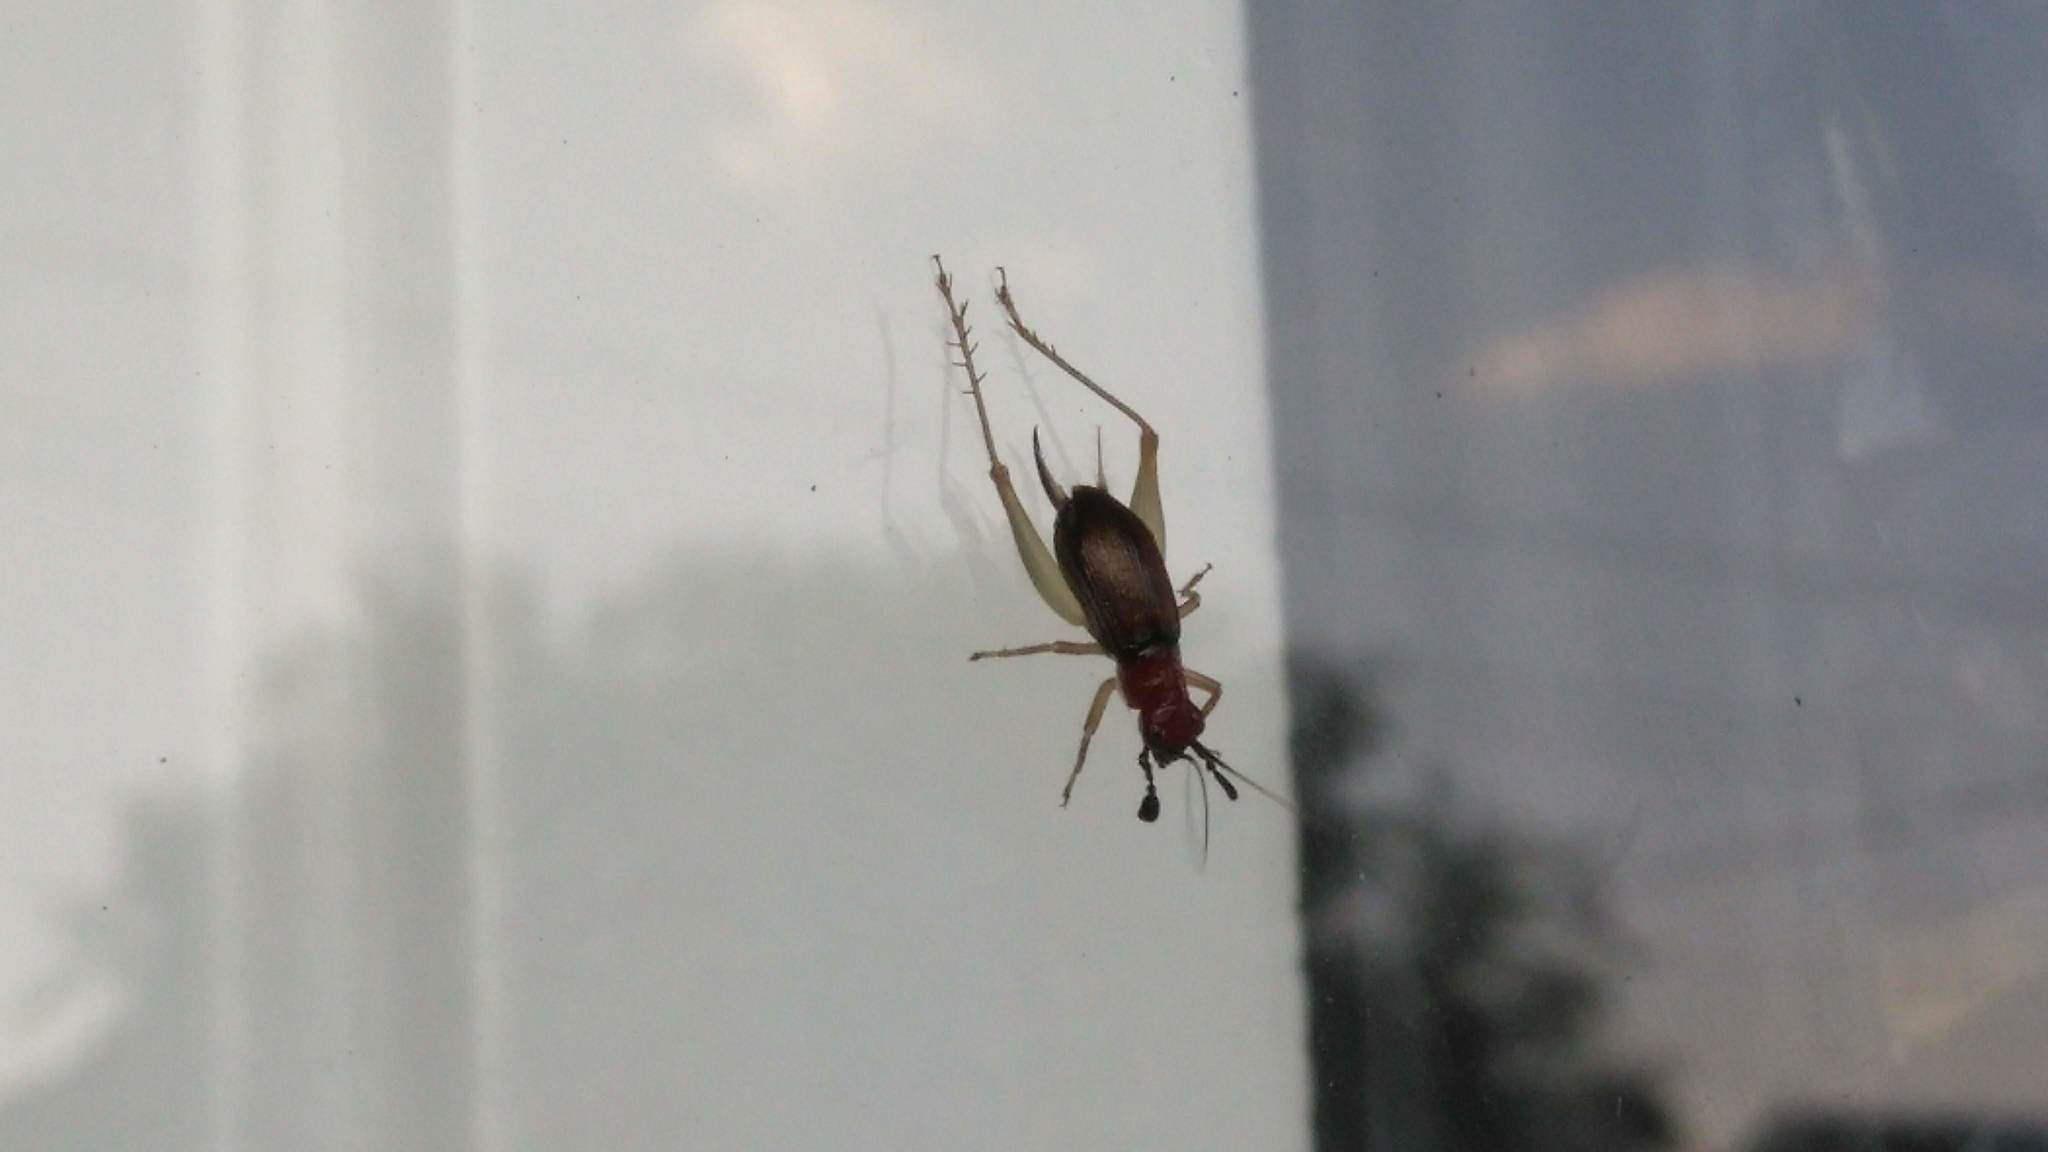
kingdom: Animalia
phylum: Arthropoda
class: Insecta
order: Orthoptera
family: Trigonidiidae
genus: Phyllopalpus
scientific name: Phyllopalpus pulchellus
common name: Handsome trig
